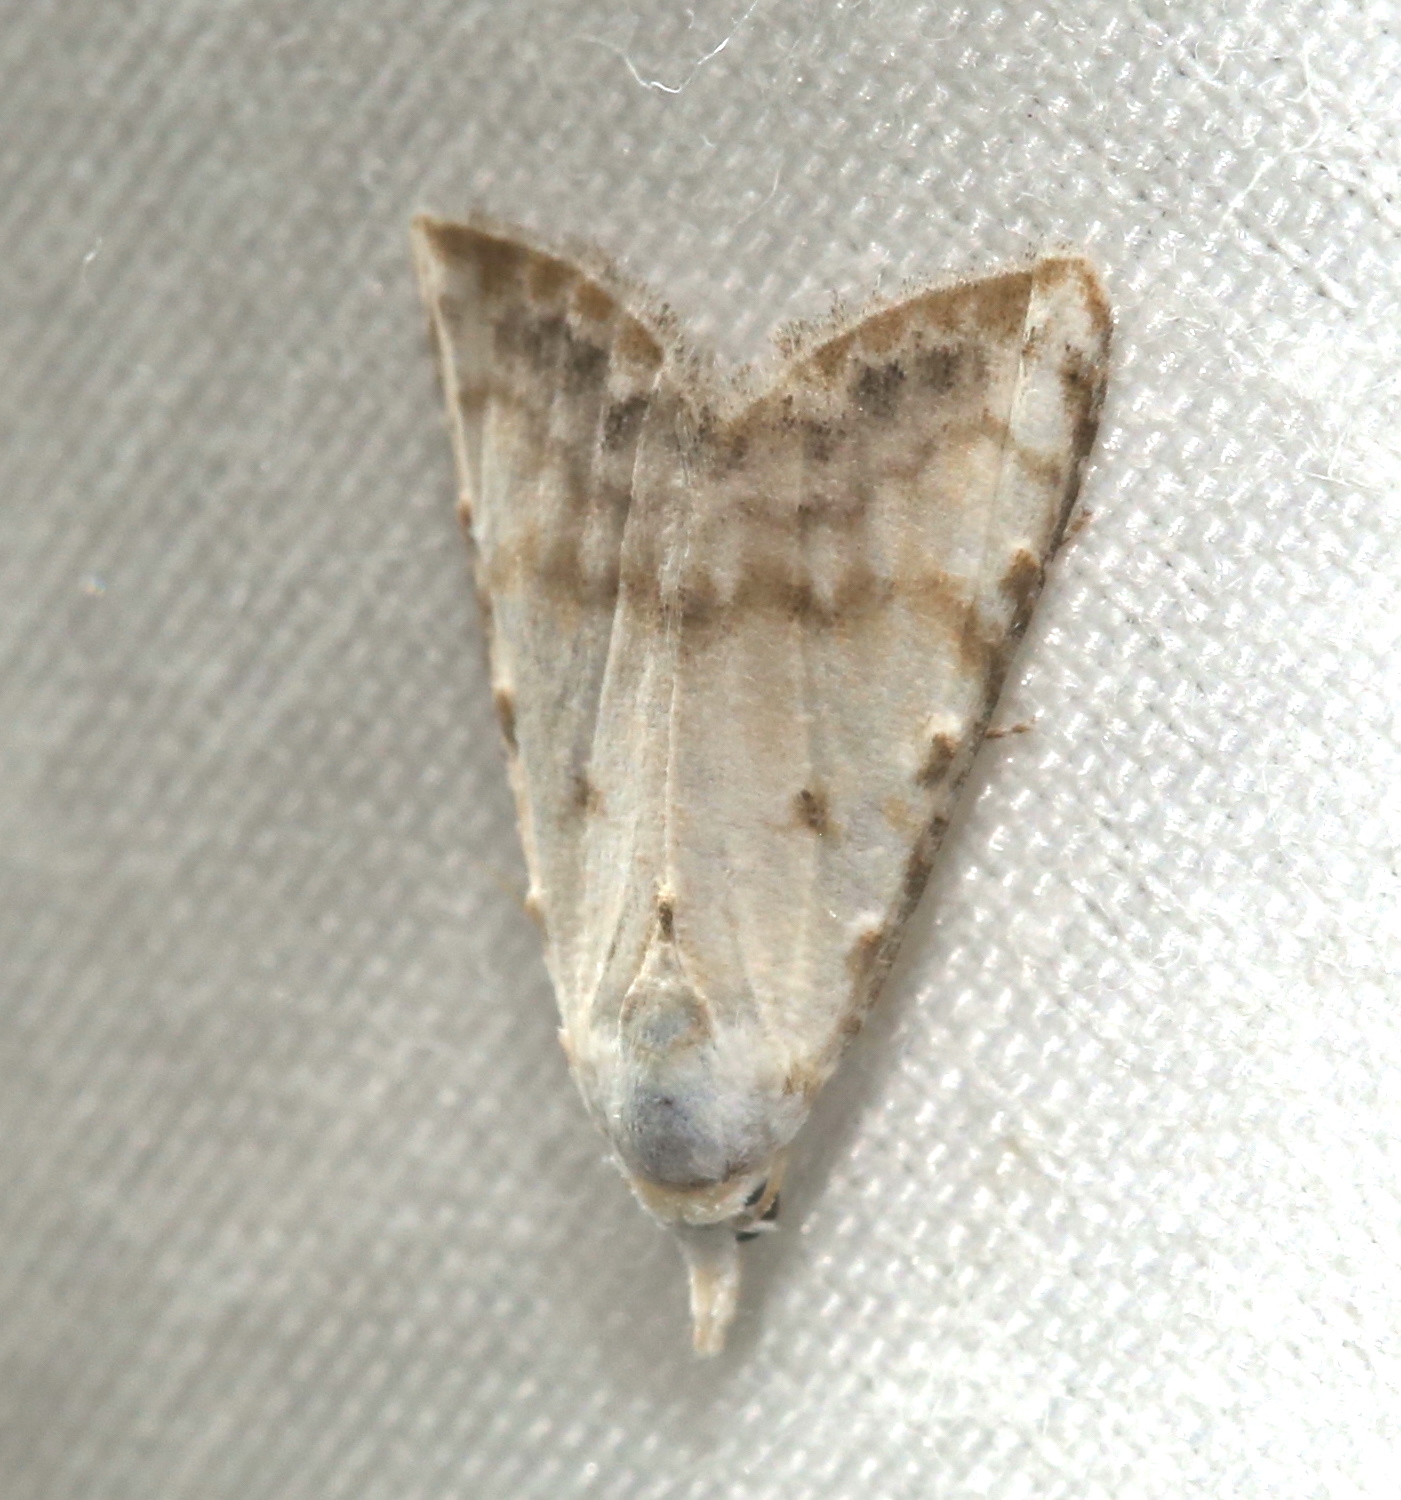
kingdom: Animalia
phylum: Arthropoda
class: Insecta
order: Lepidoptera
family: Nolidae
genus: Nola
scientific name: Nola cereella
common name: Sorghum webworm moth
